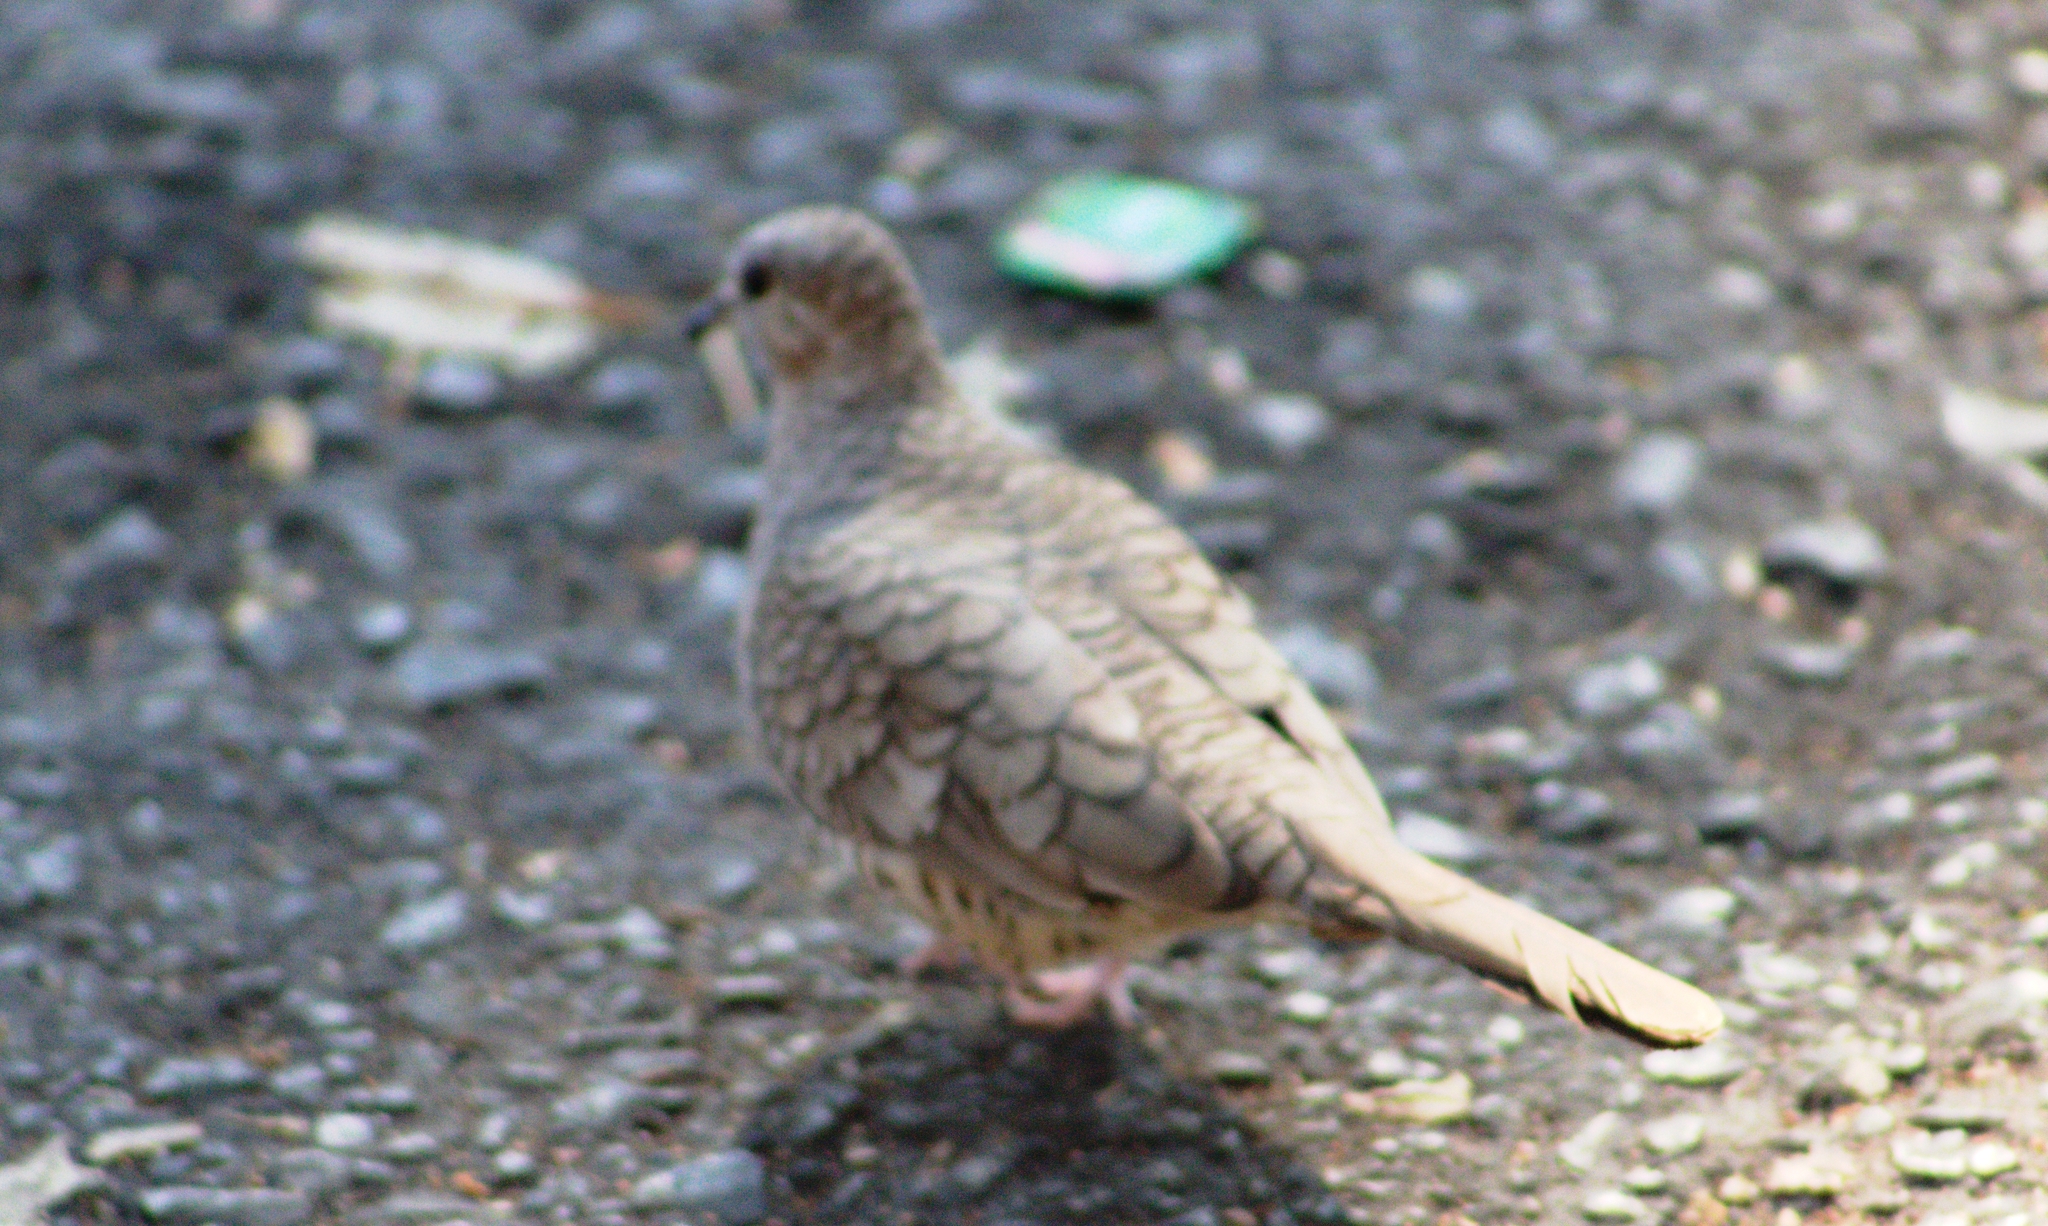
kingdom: Animalia
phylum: Chordata
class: Aves
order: Columbiformes
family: Columbidae
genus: Columbina
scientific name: Columbina inca
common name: Inca dove
